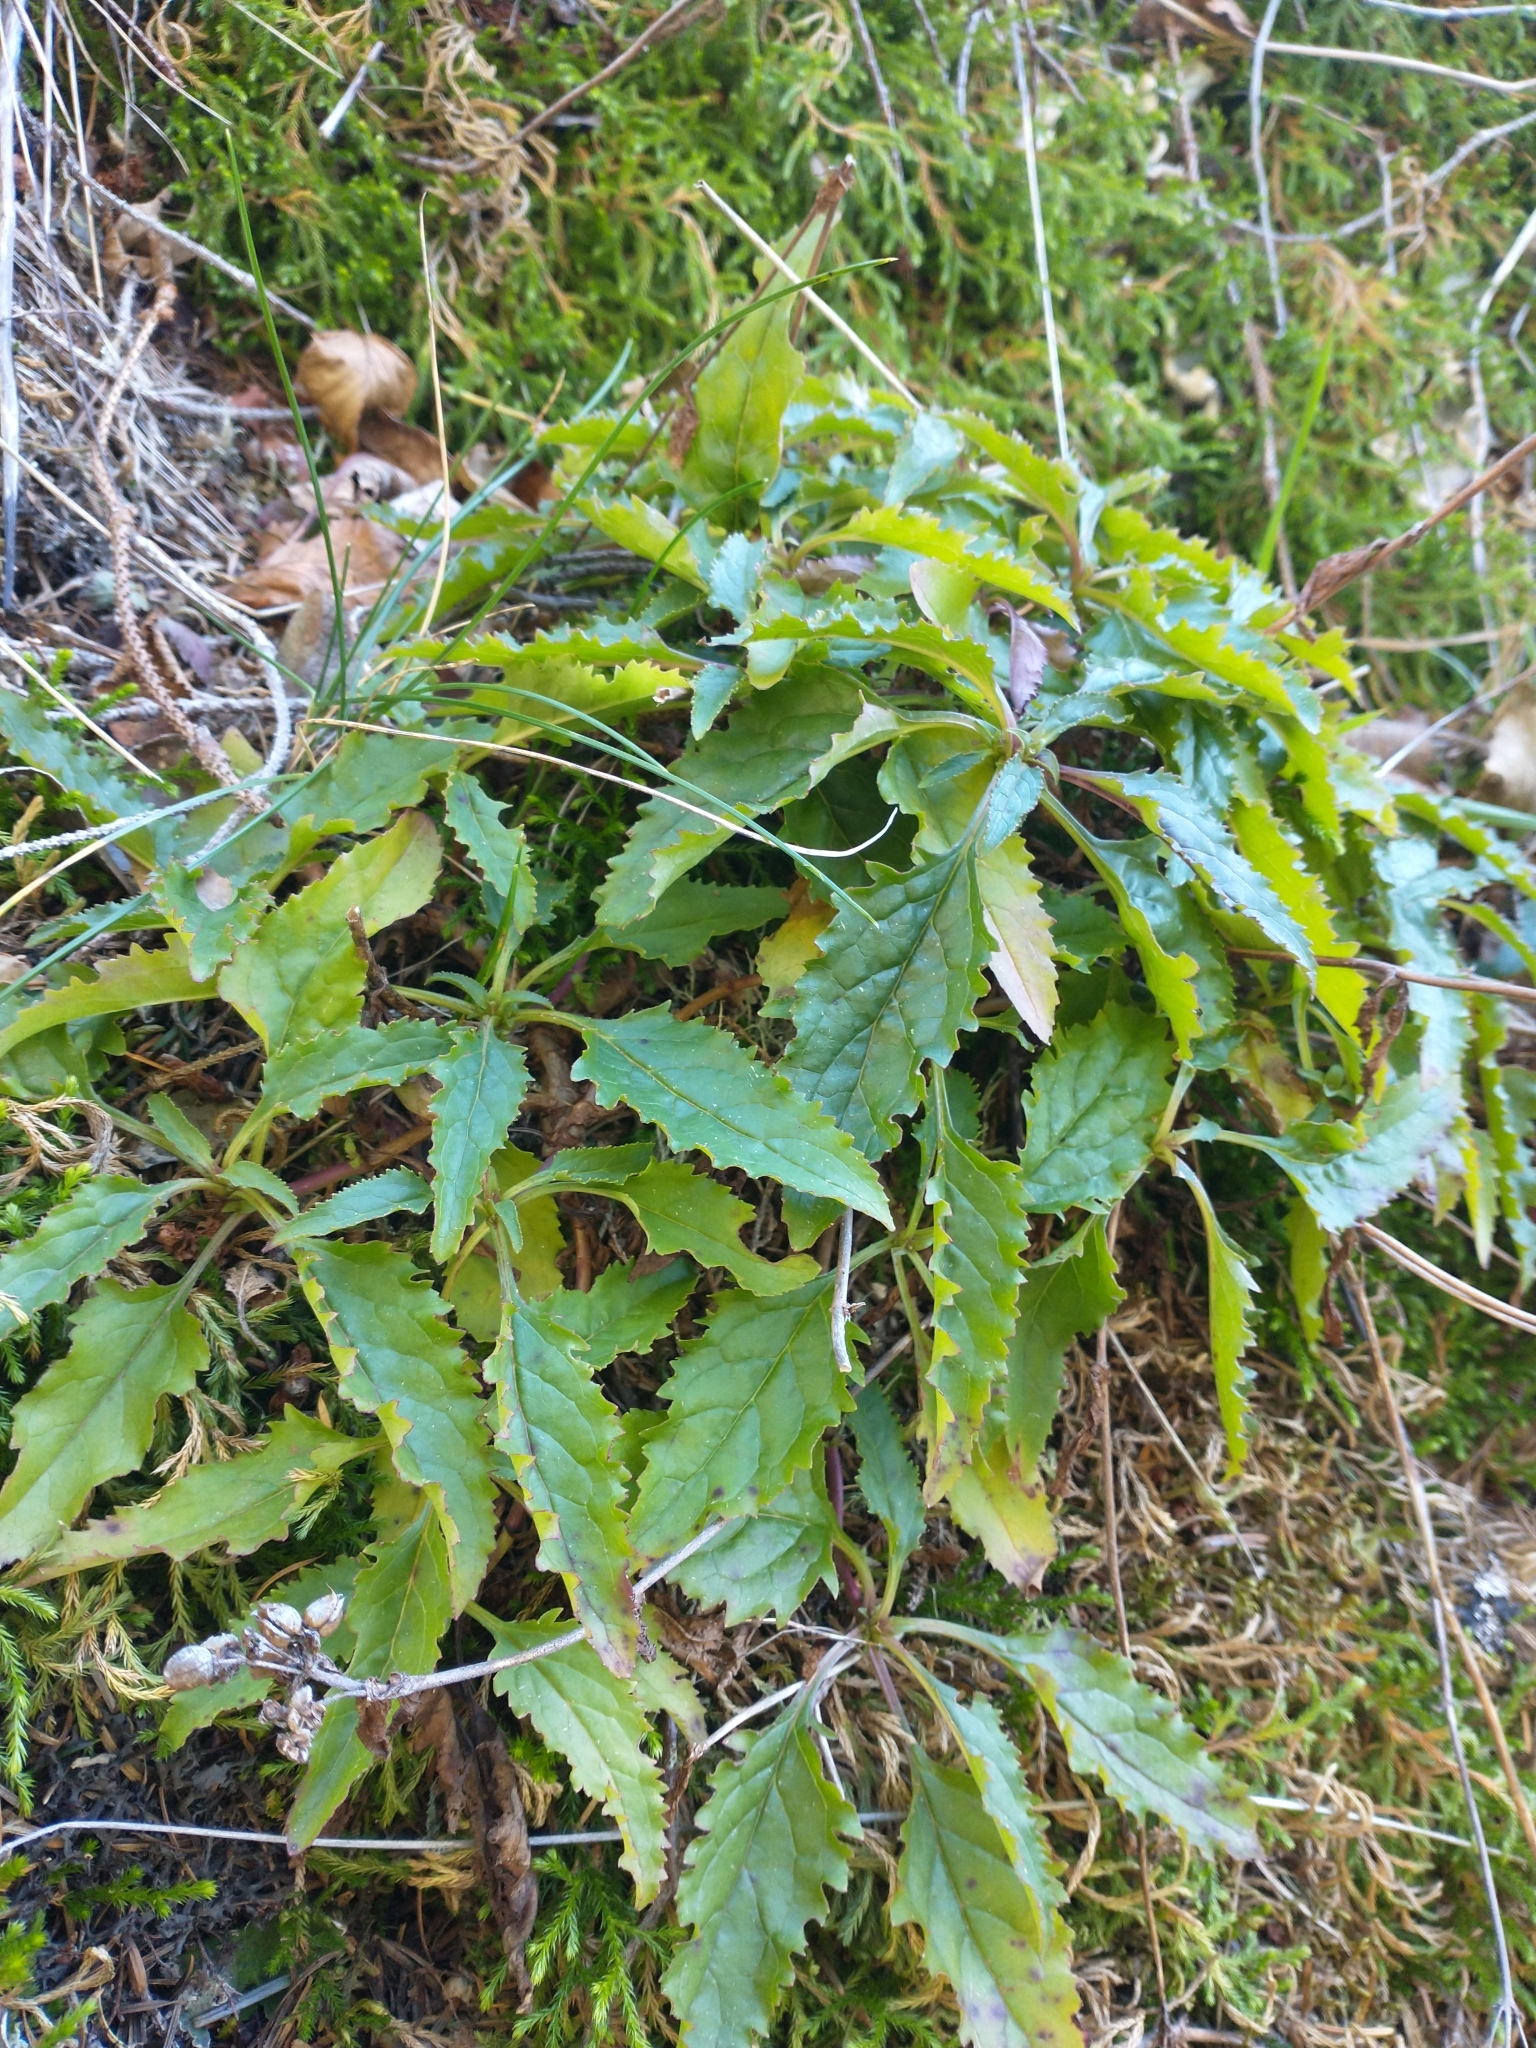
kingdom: Plantae
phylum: Tracheophyta
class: Magnoliopsida
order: Lamiales
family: Plantaginaceae
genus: Penstemon
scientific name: Penstemon serrulatus
